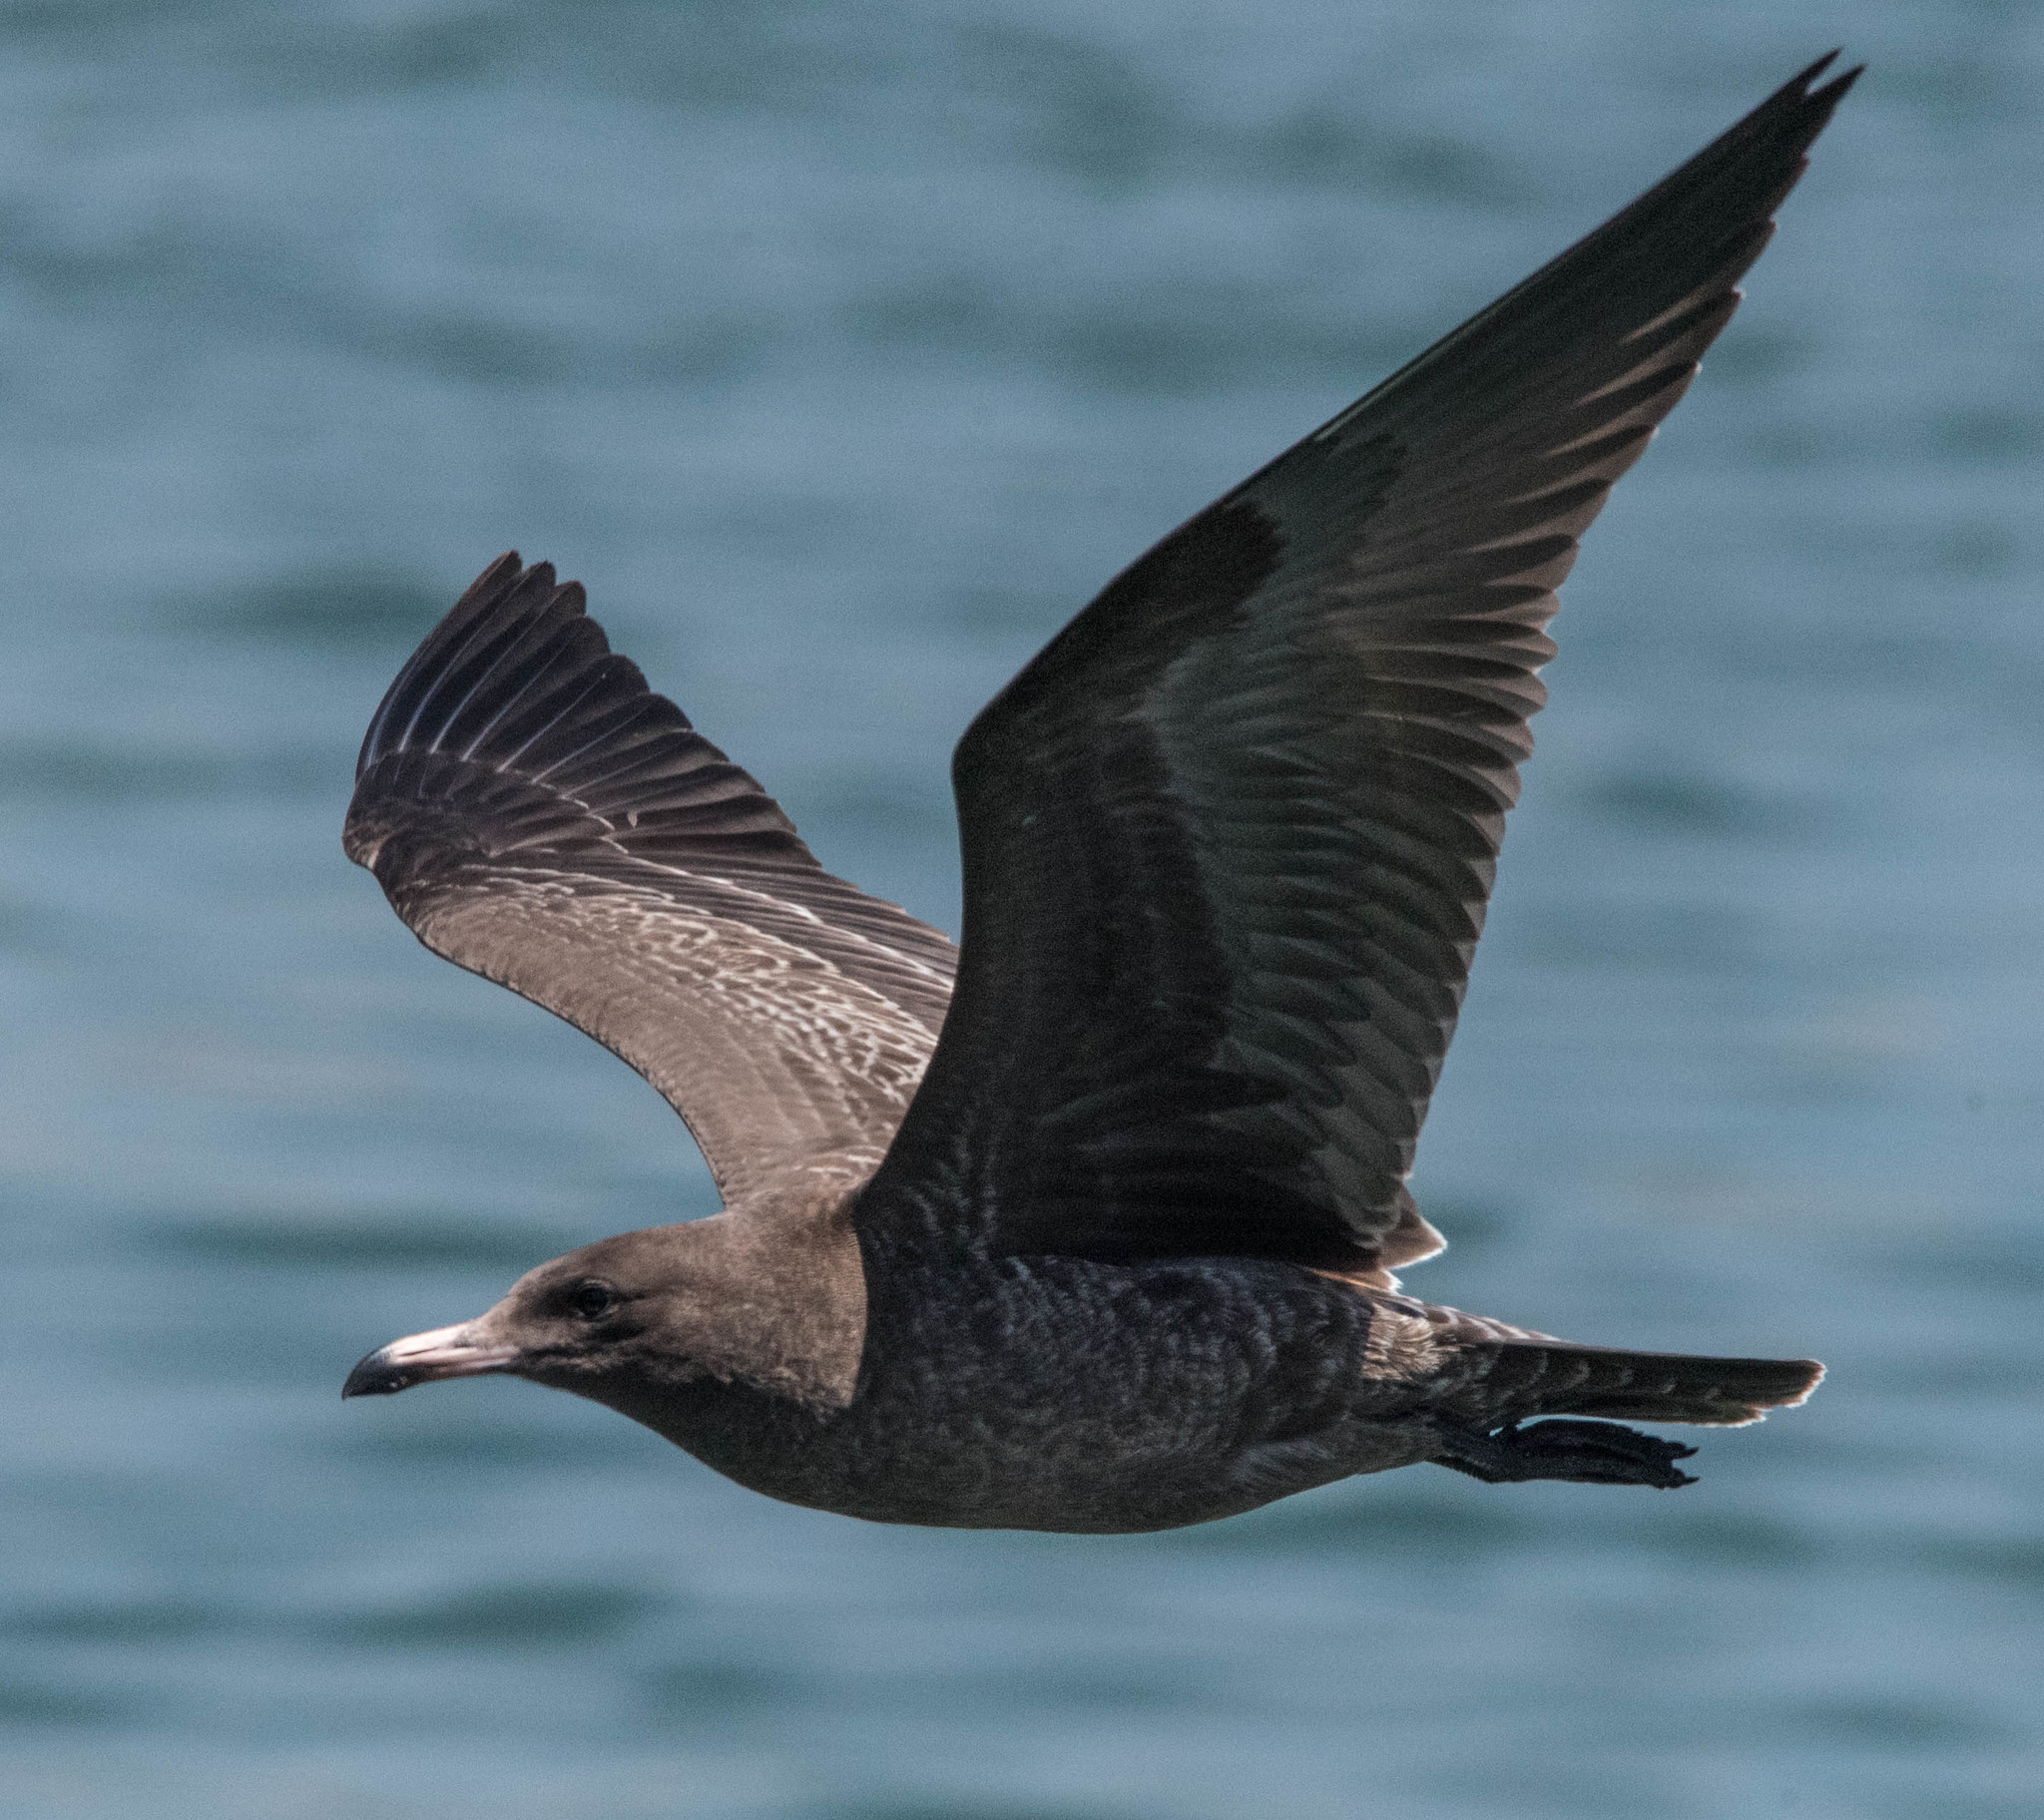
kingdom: Animalia
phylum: Chordata
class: Aves
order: Charadriiformes
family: Laridae
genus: Larus
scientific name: Larus heermanni
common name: Heermann's gull
